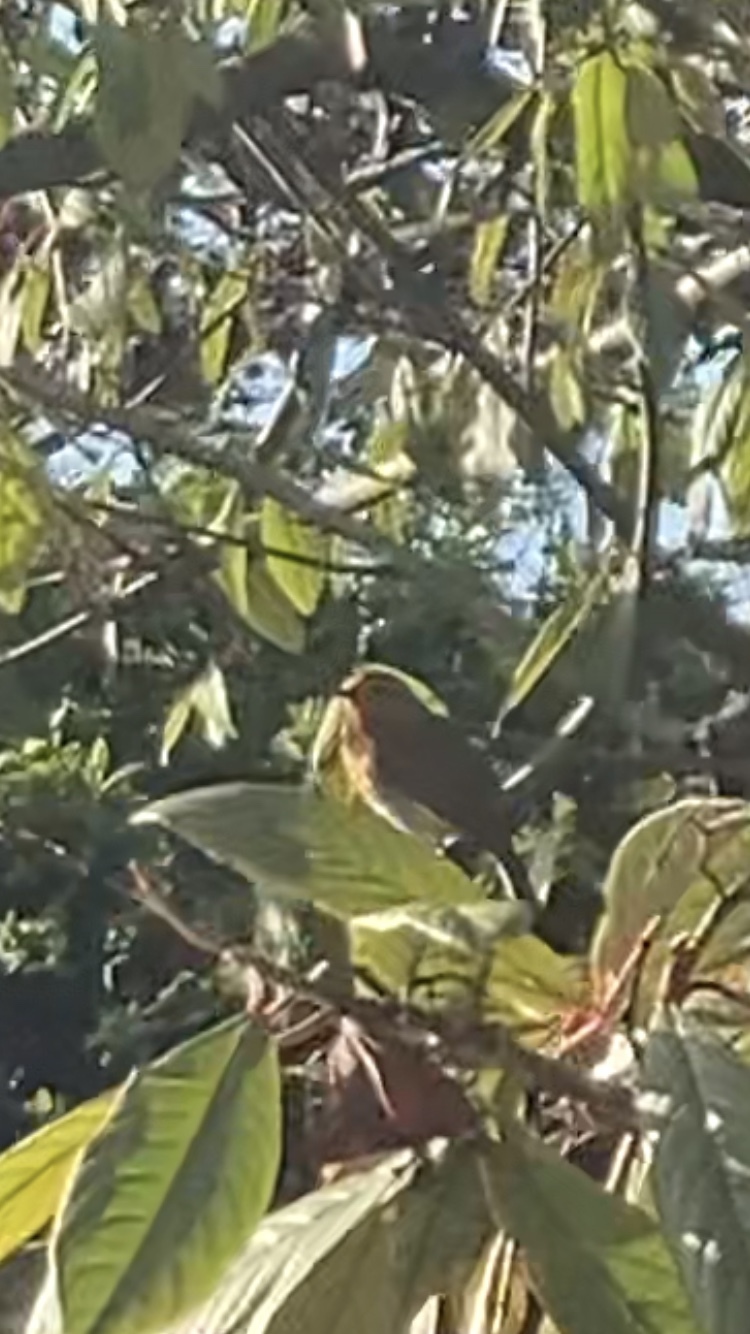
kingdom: Animalia
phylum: Chordata
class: Aves
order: Passeriformes
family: Muscicapidae
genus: Erithacus
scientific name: Erithacus rubecula
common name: European robin
